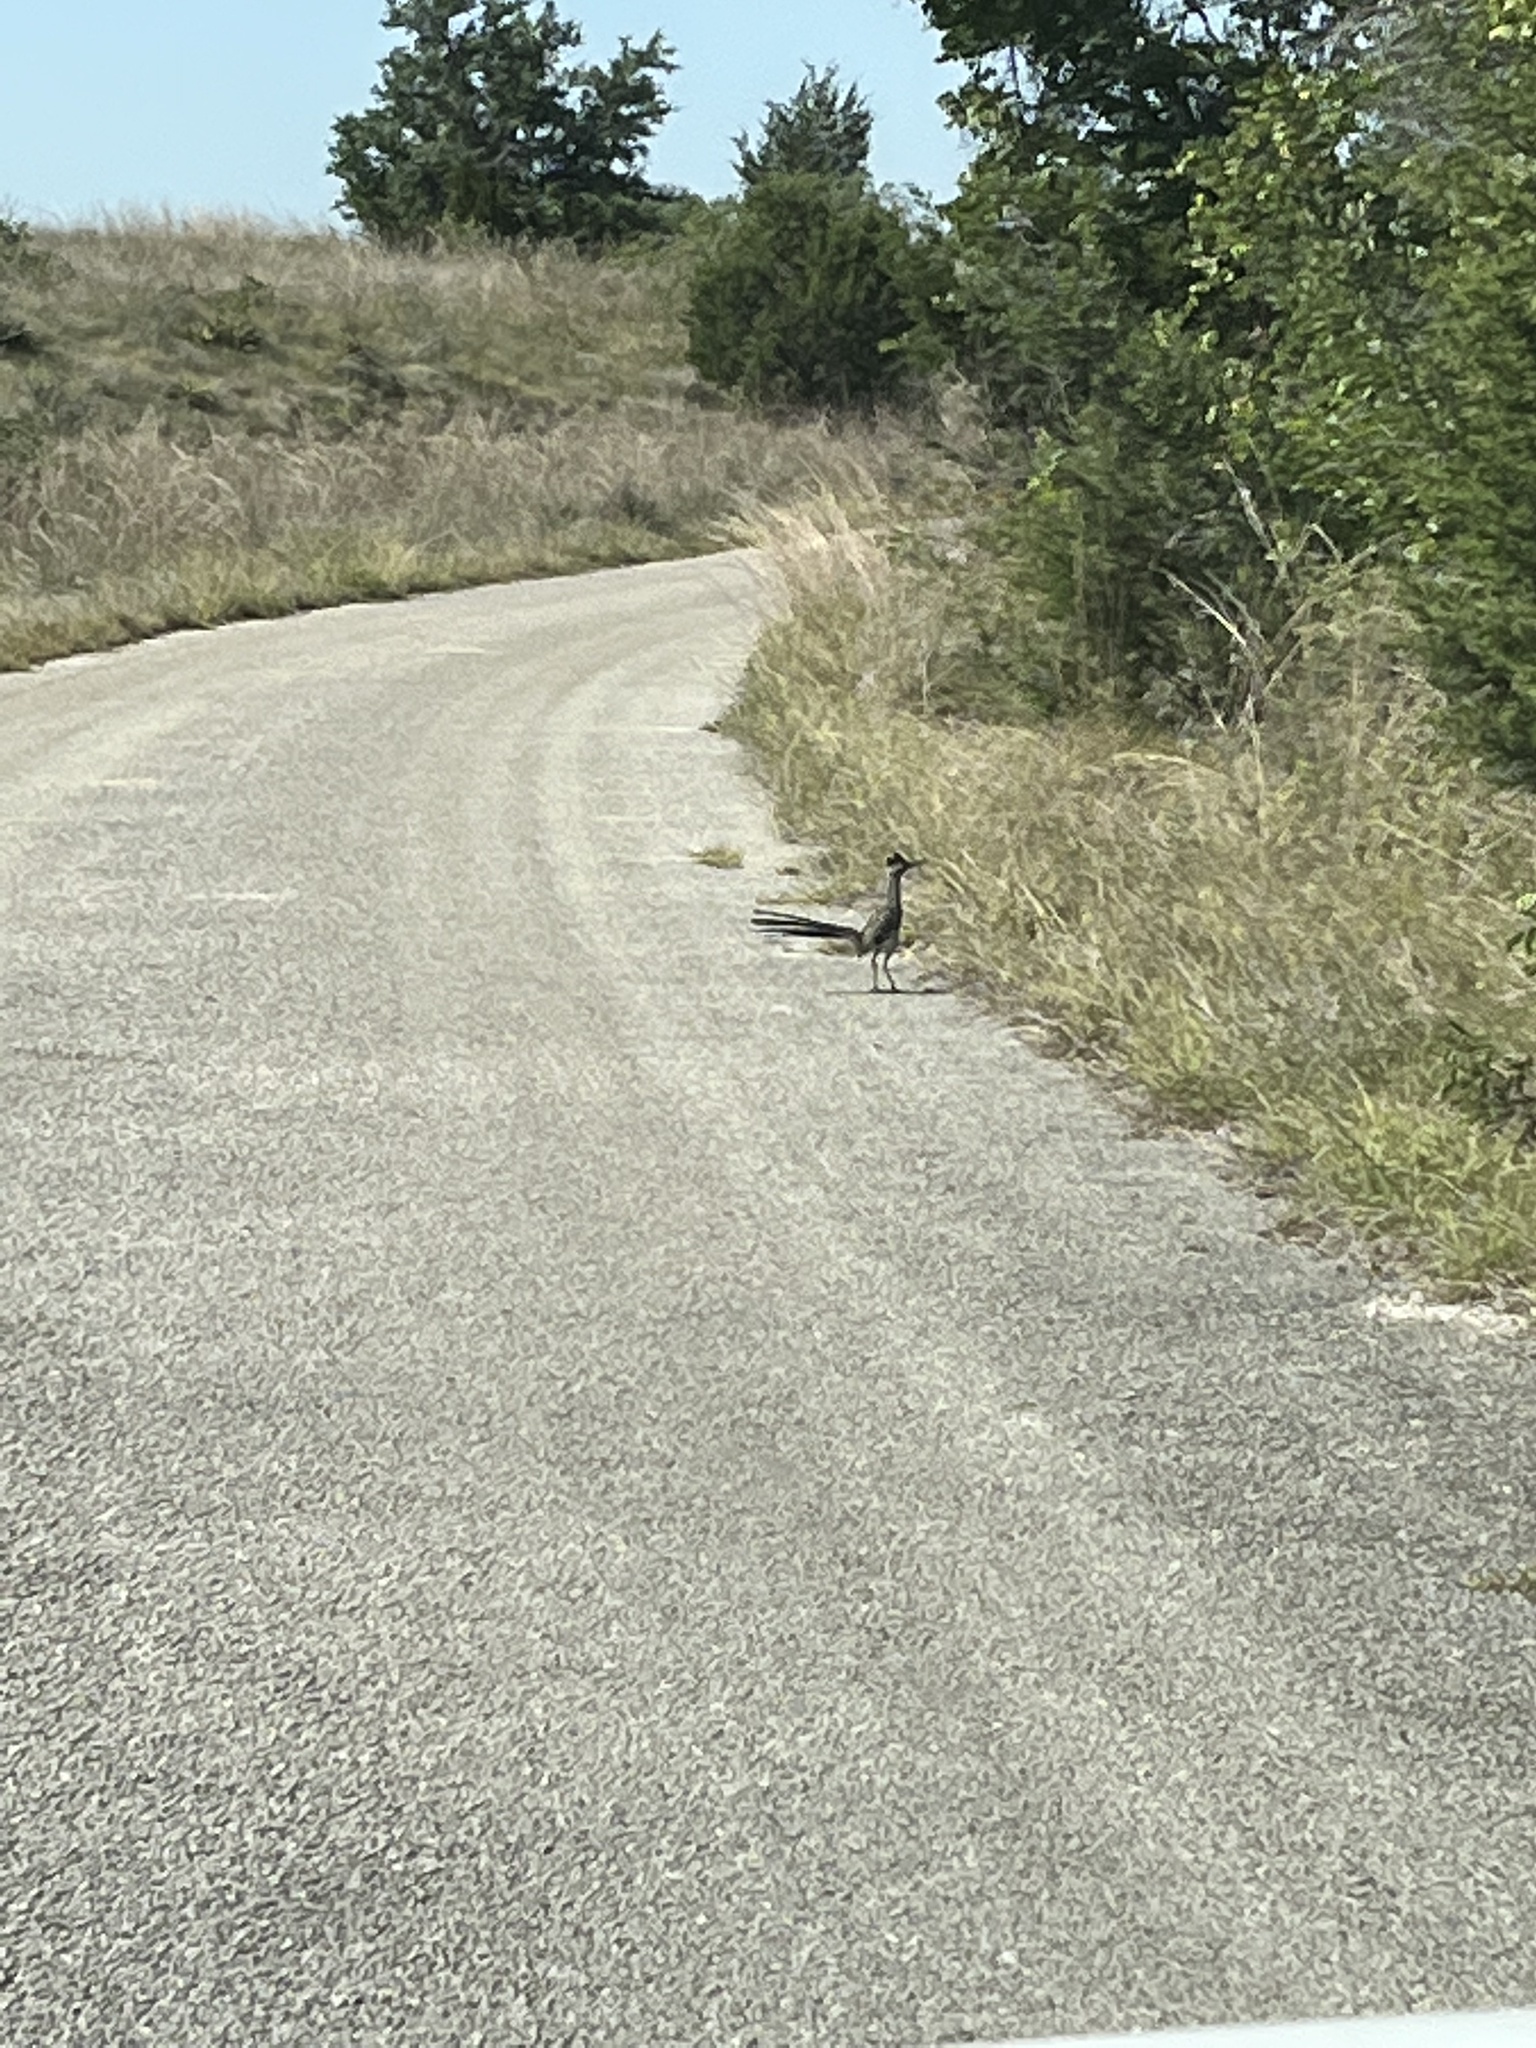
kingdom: Animalia
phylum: Chordata
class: Aves
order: Cuculiformes
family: Cuculidae
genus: Geococcyx
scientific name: Geococcyx californianus
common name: Greater roadrunner
